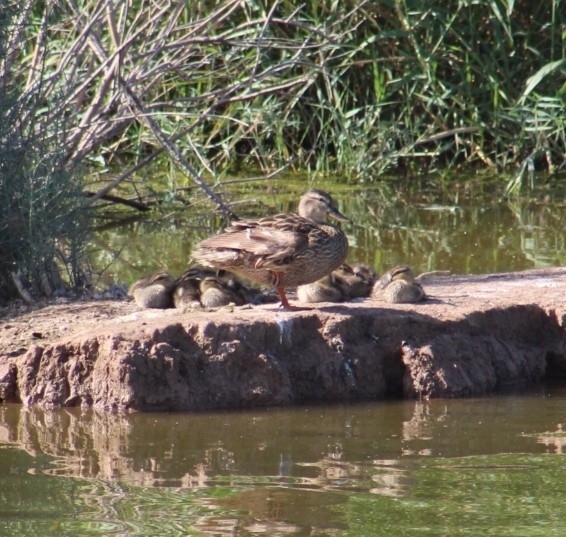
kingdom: Animalia
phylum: Chordata
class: Aves
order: Anseriformes
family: Anatidae
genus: Anas
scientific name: Anas platyrhynchos
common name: Mallard
